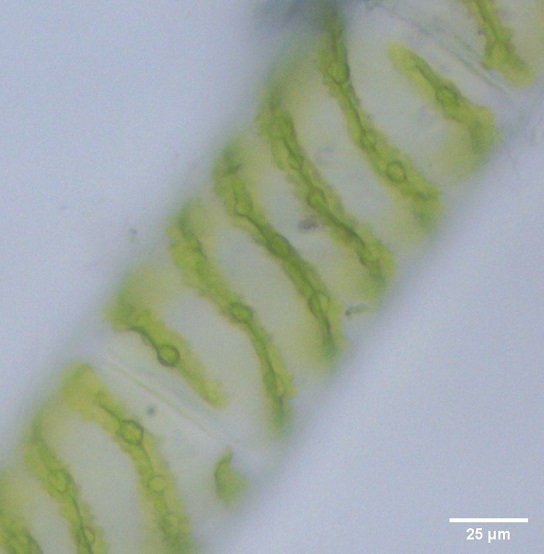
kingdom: Plantae
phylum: Charophyta
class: Zygnematophyceae
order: Zygnematales
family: Zygnemataceae
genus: Spirogyra
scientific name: Spirogyra
